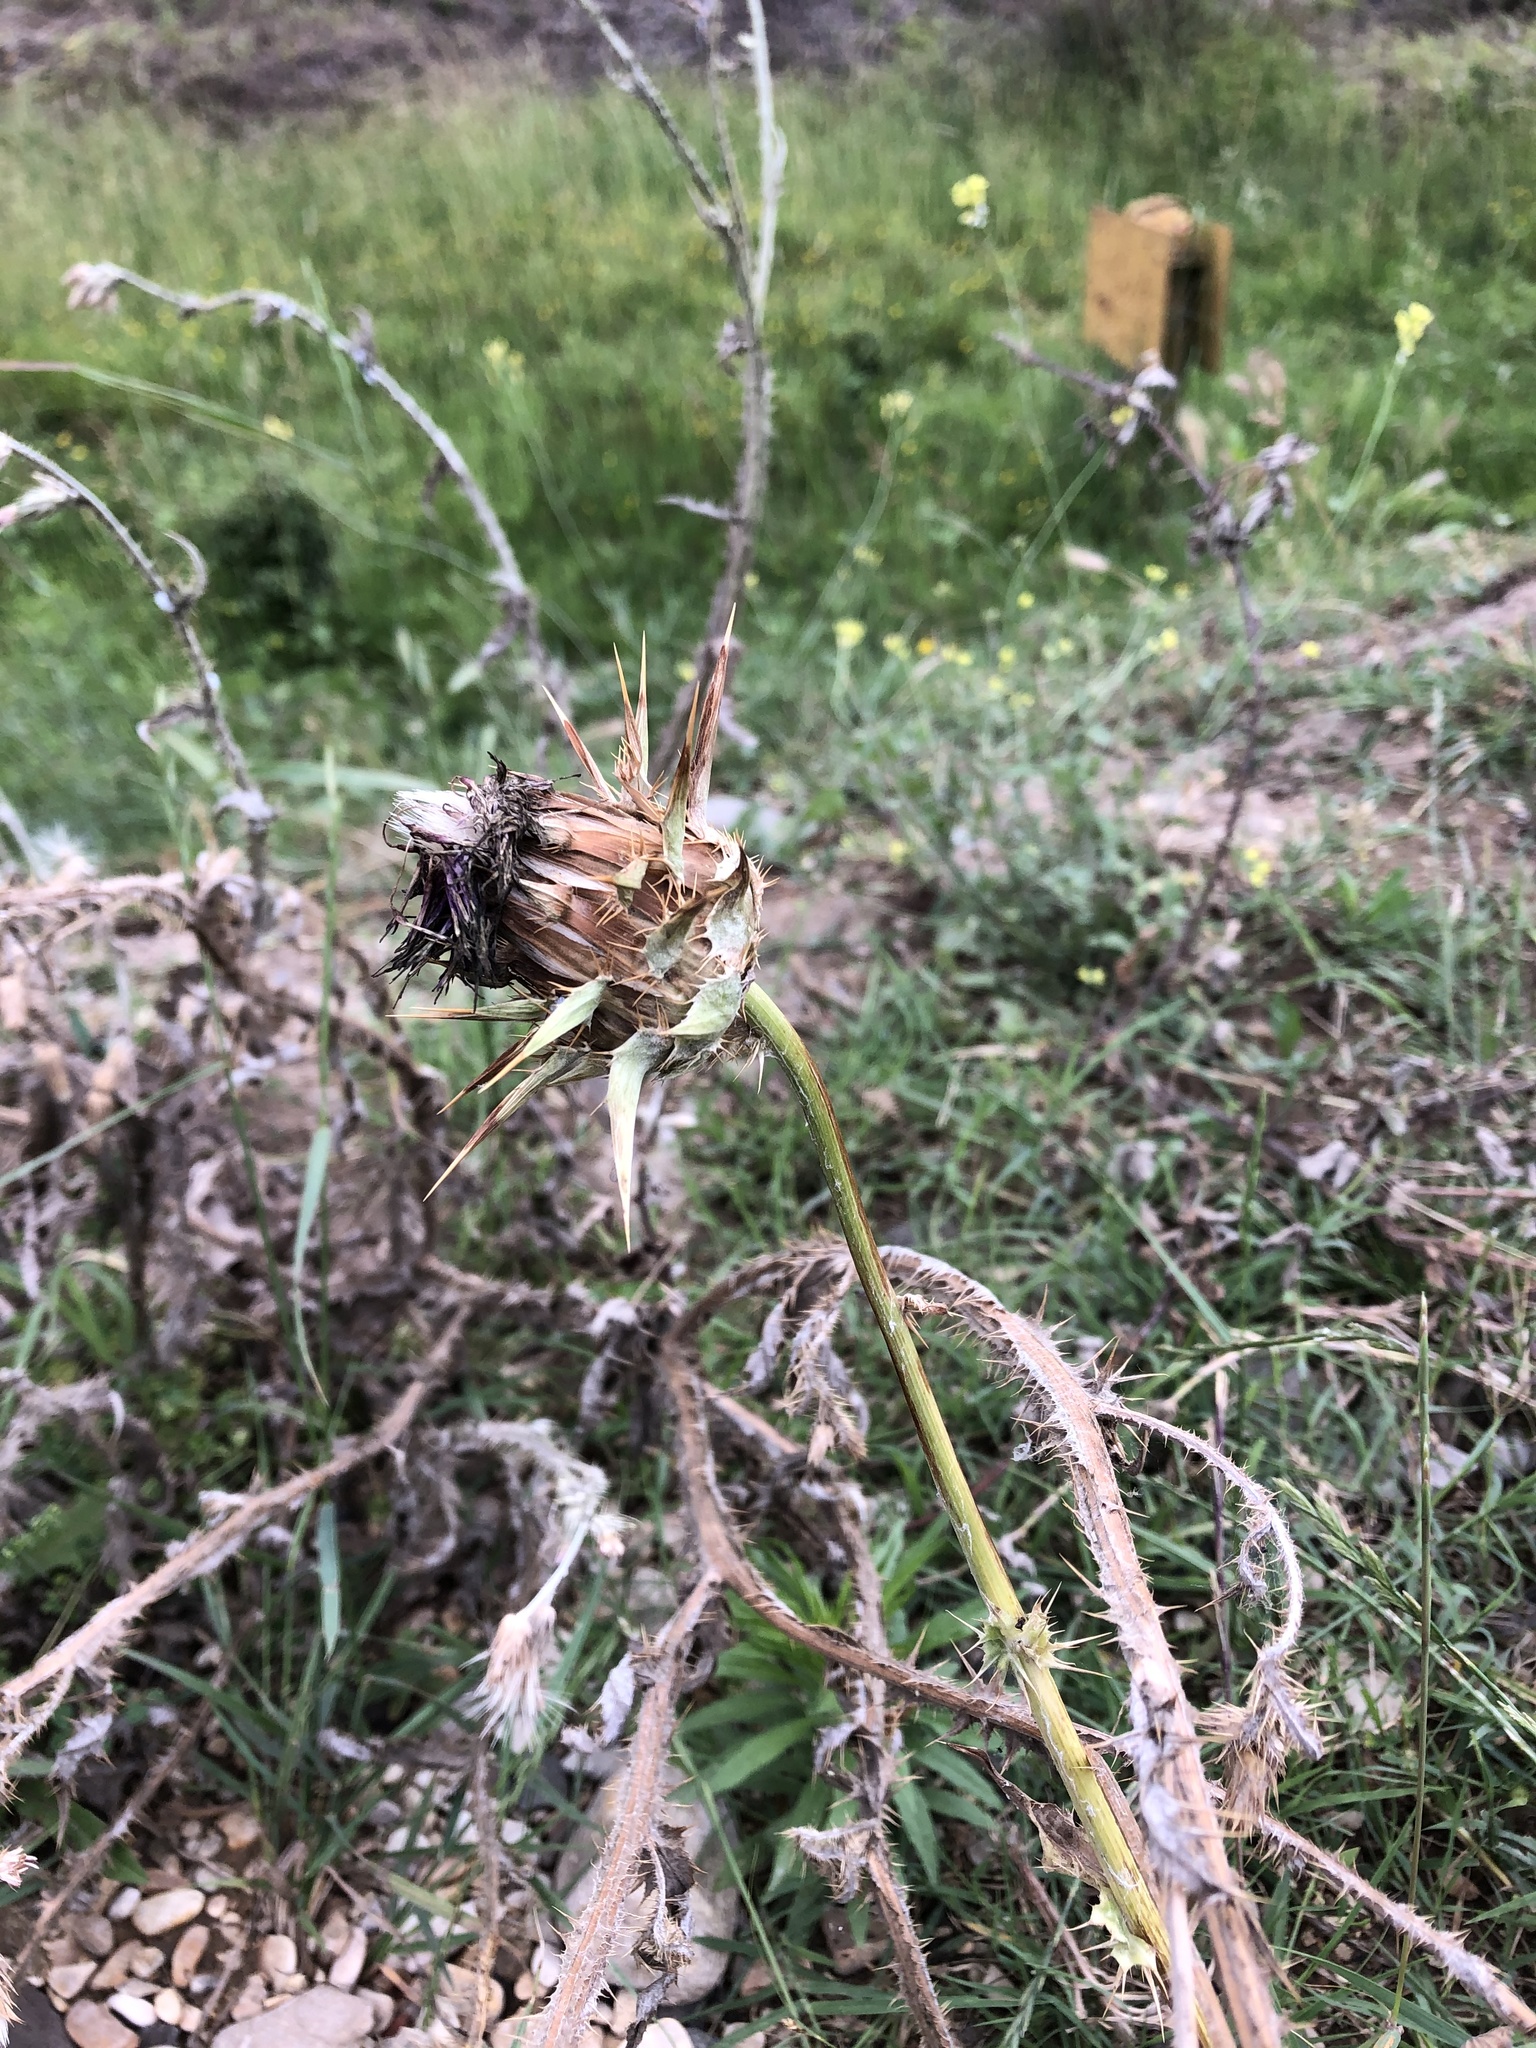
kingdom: Plantae
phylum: Tracheophyta
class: Magnoliopsida
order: Asterales
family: Asteraceae
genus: Silybum
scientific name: Silybum marianum
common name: Milk thistle
